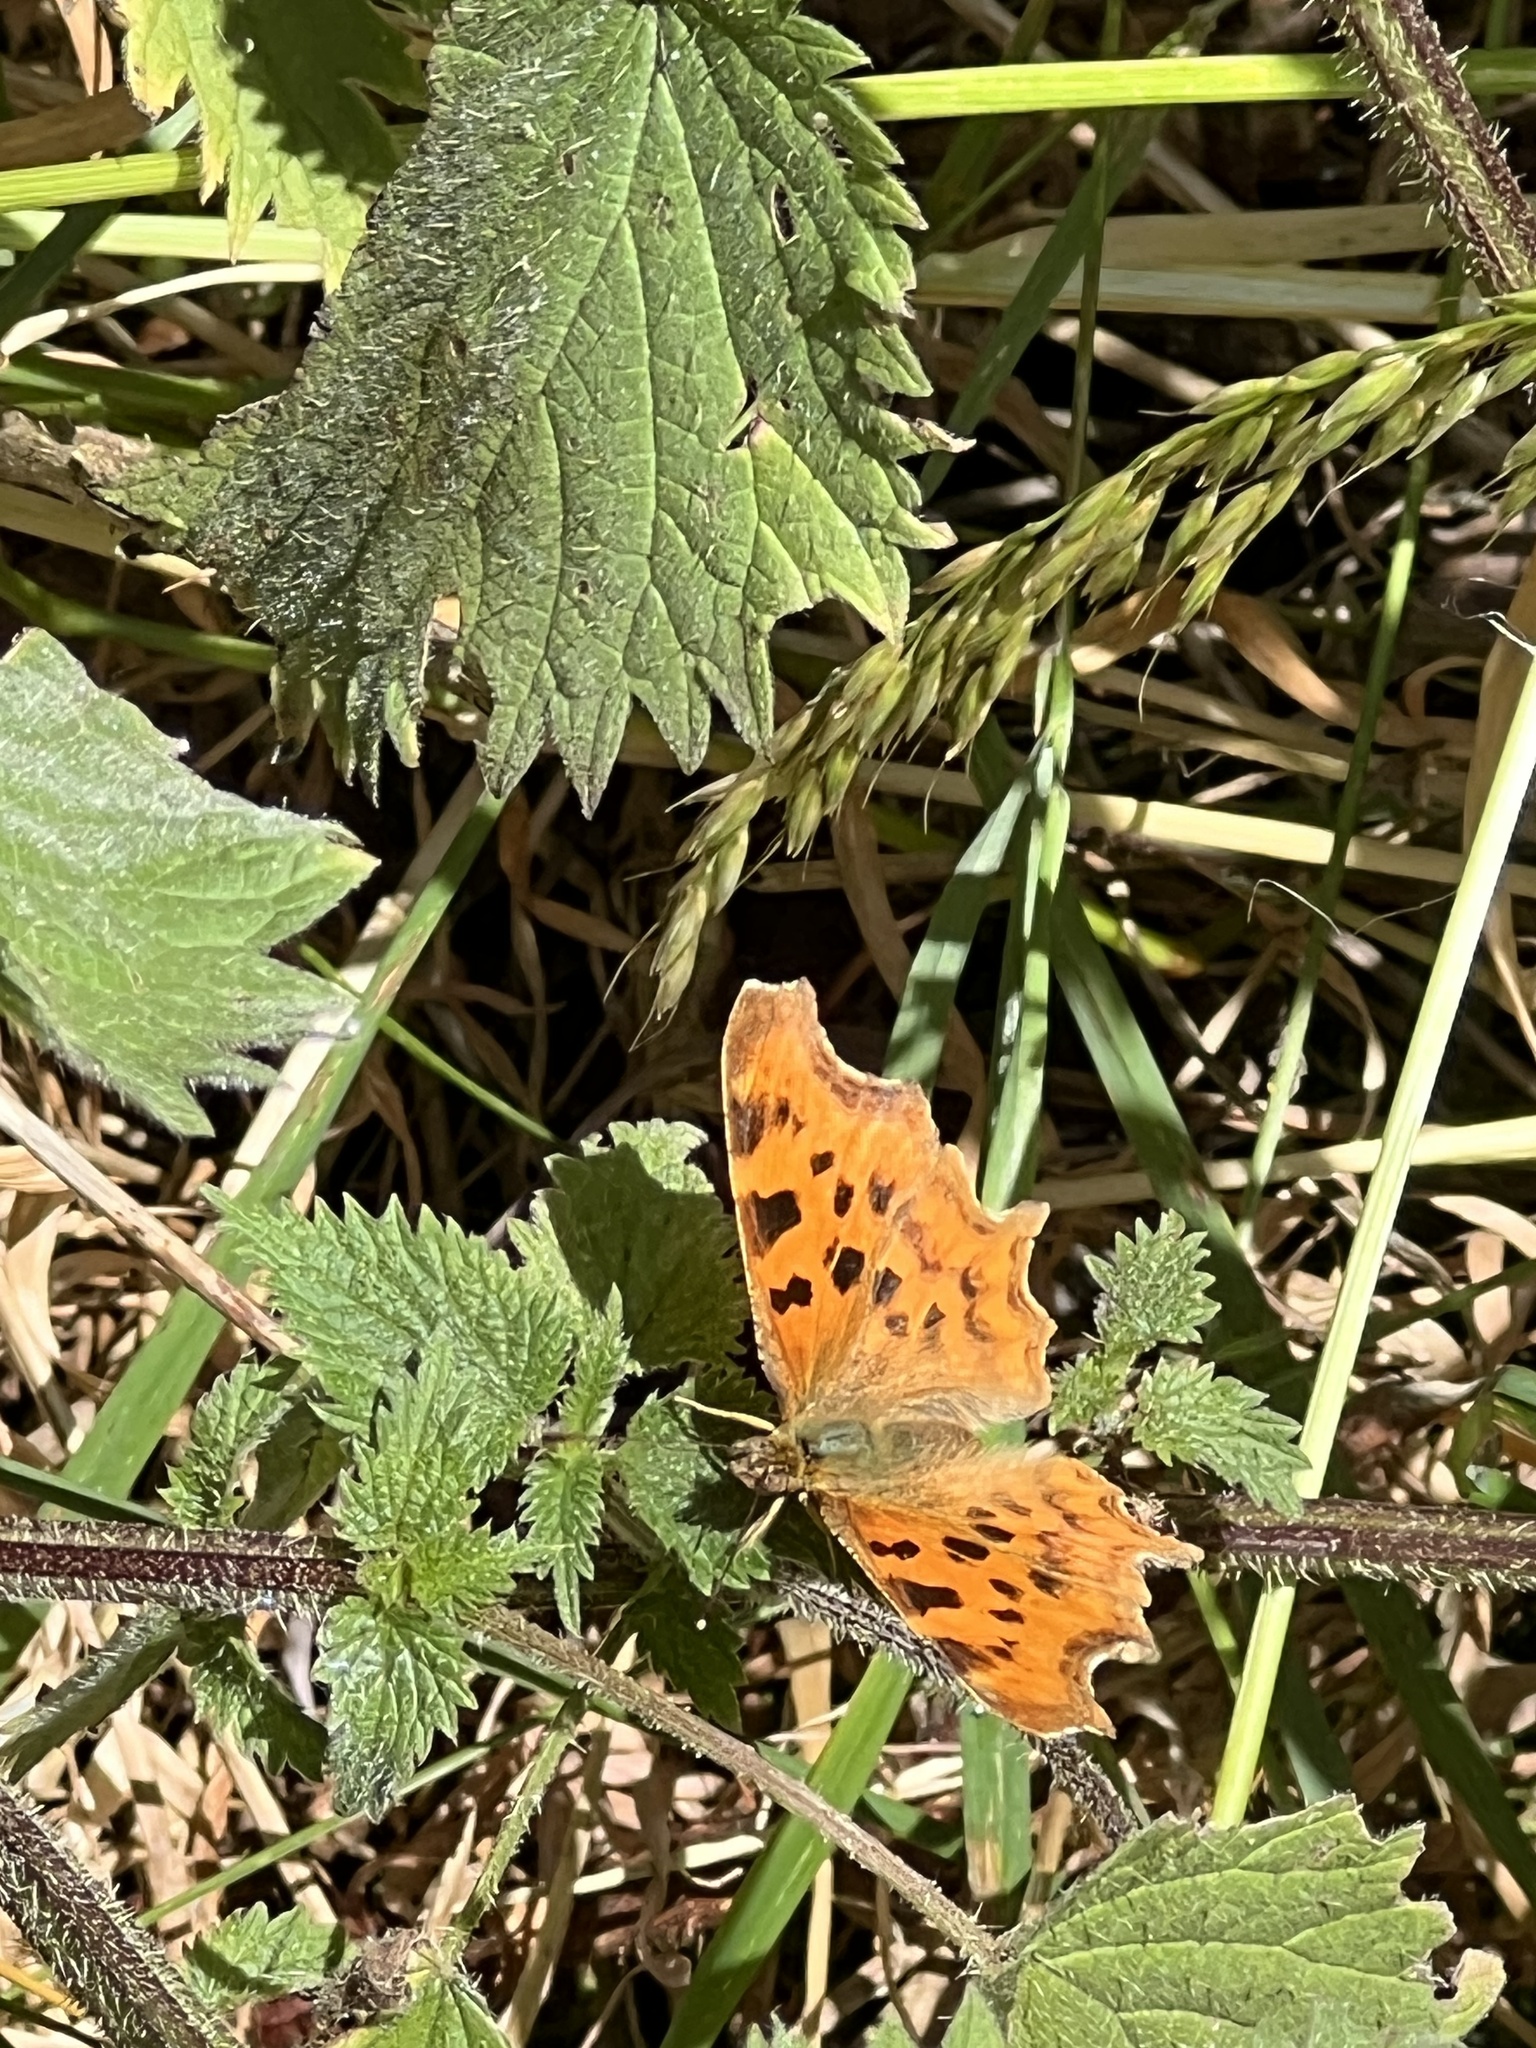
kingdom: Animalia
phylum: Arthropoda
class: Insecta
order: Lepidoptera
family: Nymphalidae
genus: Polygonia
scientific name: Polygonia c-album
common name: Comma
